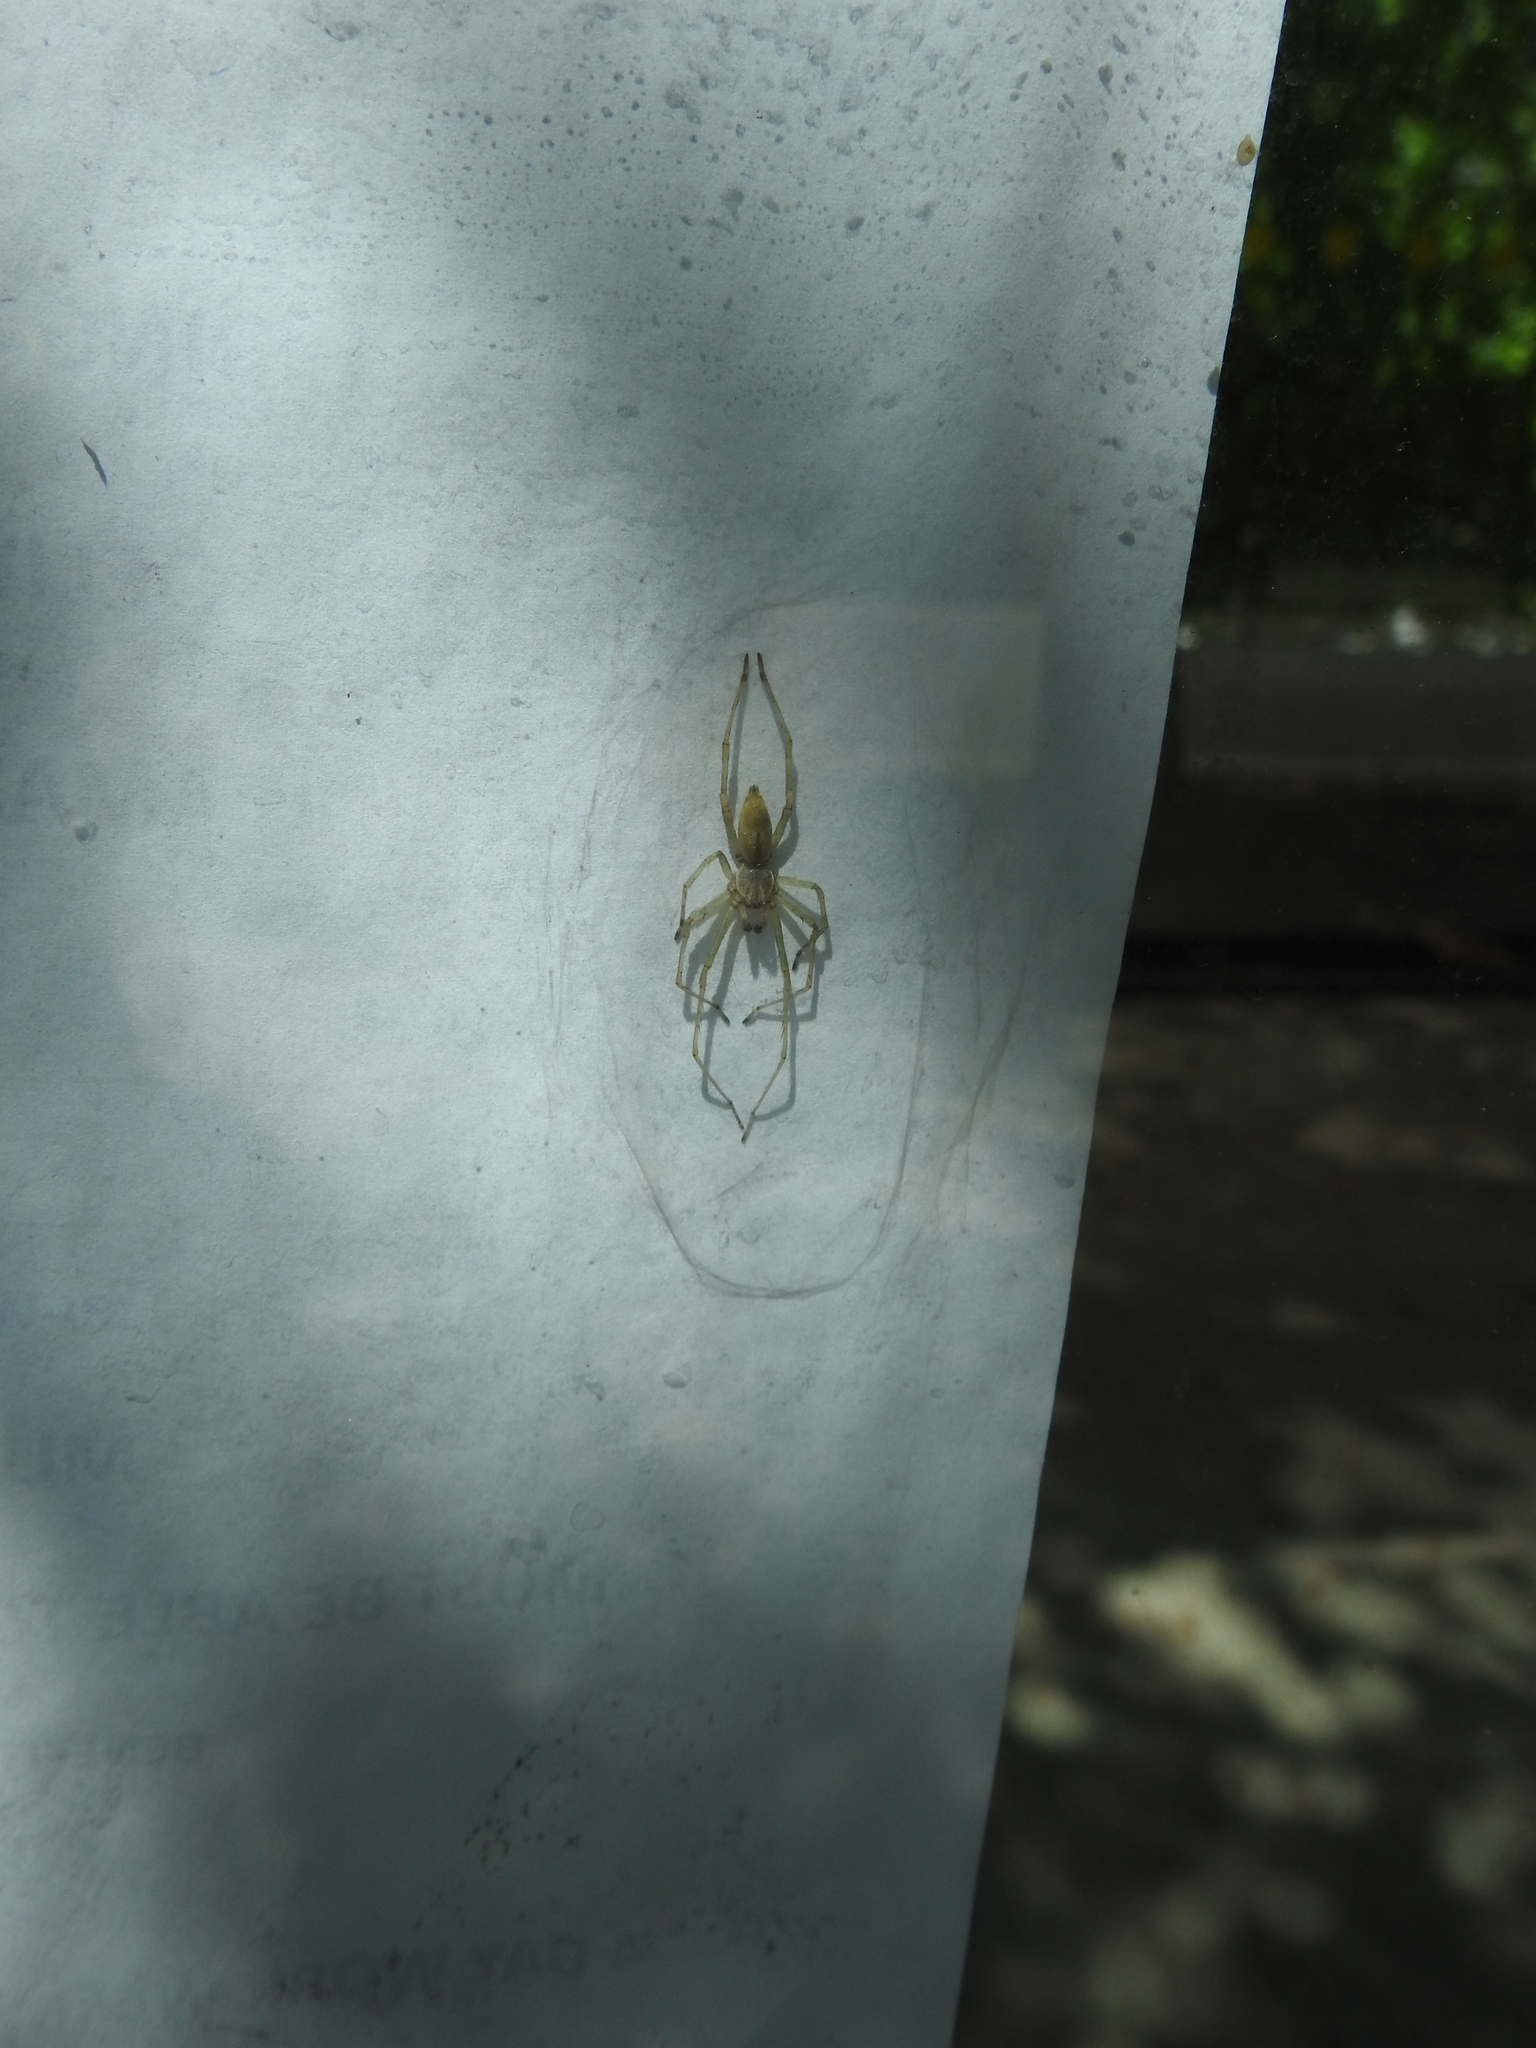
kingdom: Animalia
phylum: Arthropoda
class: Arachnida
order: Araneae
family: Cheiracanthiidae
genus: Cheiracanthium
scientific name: Cheiracanthium inclusum
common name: Long-legged sac spiders
